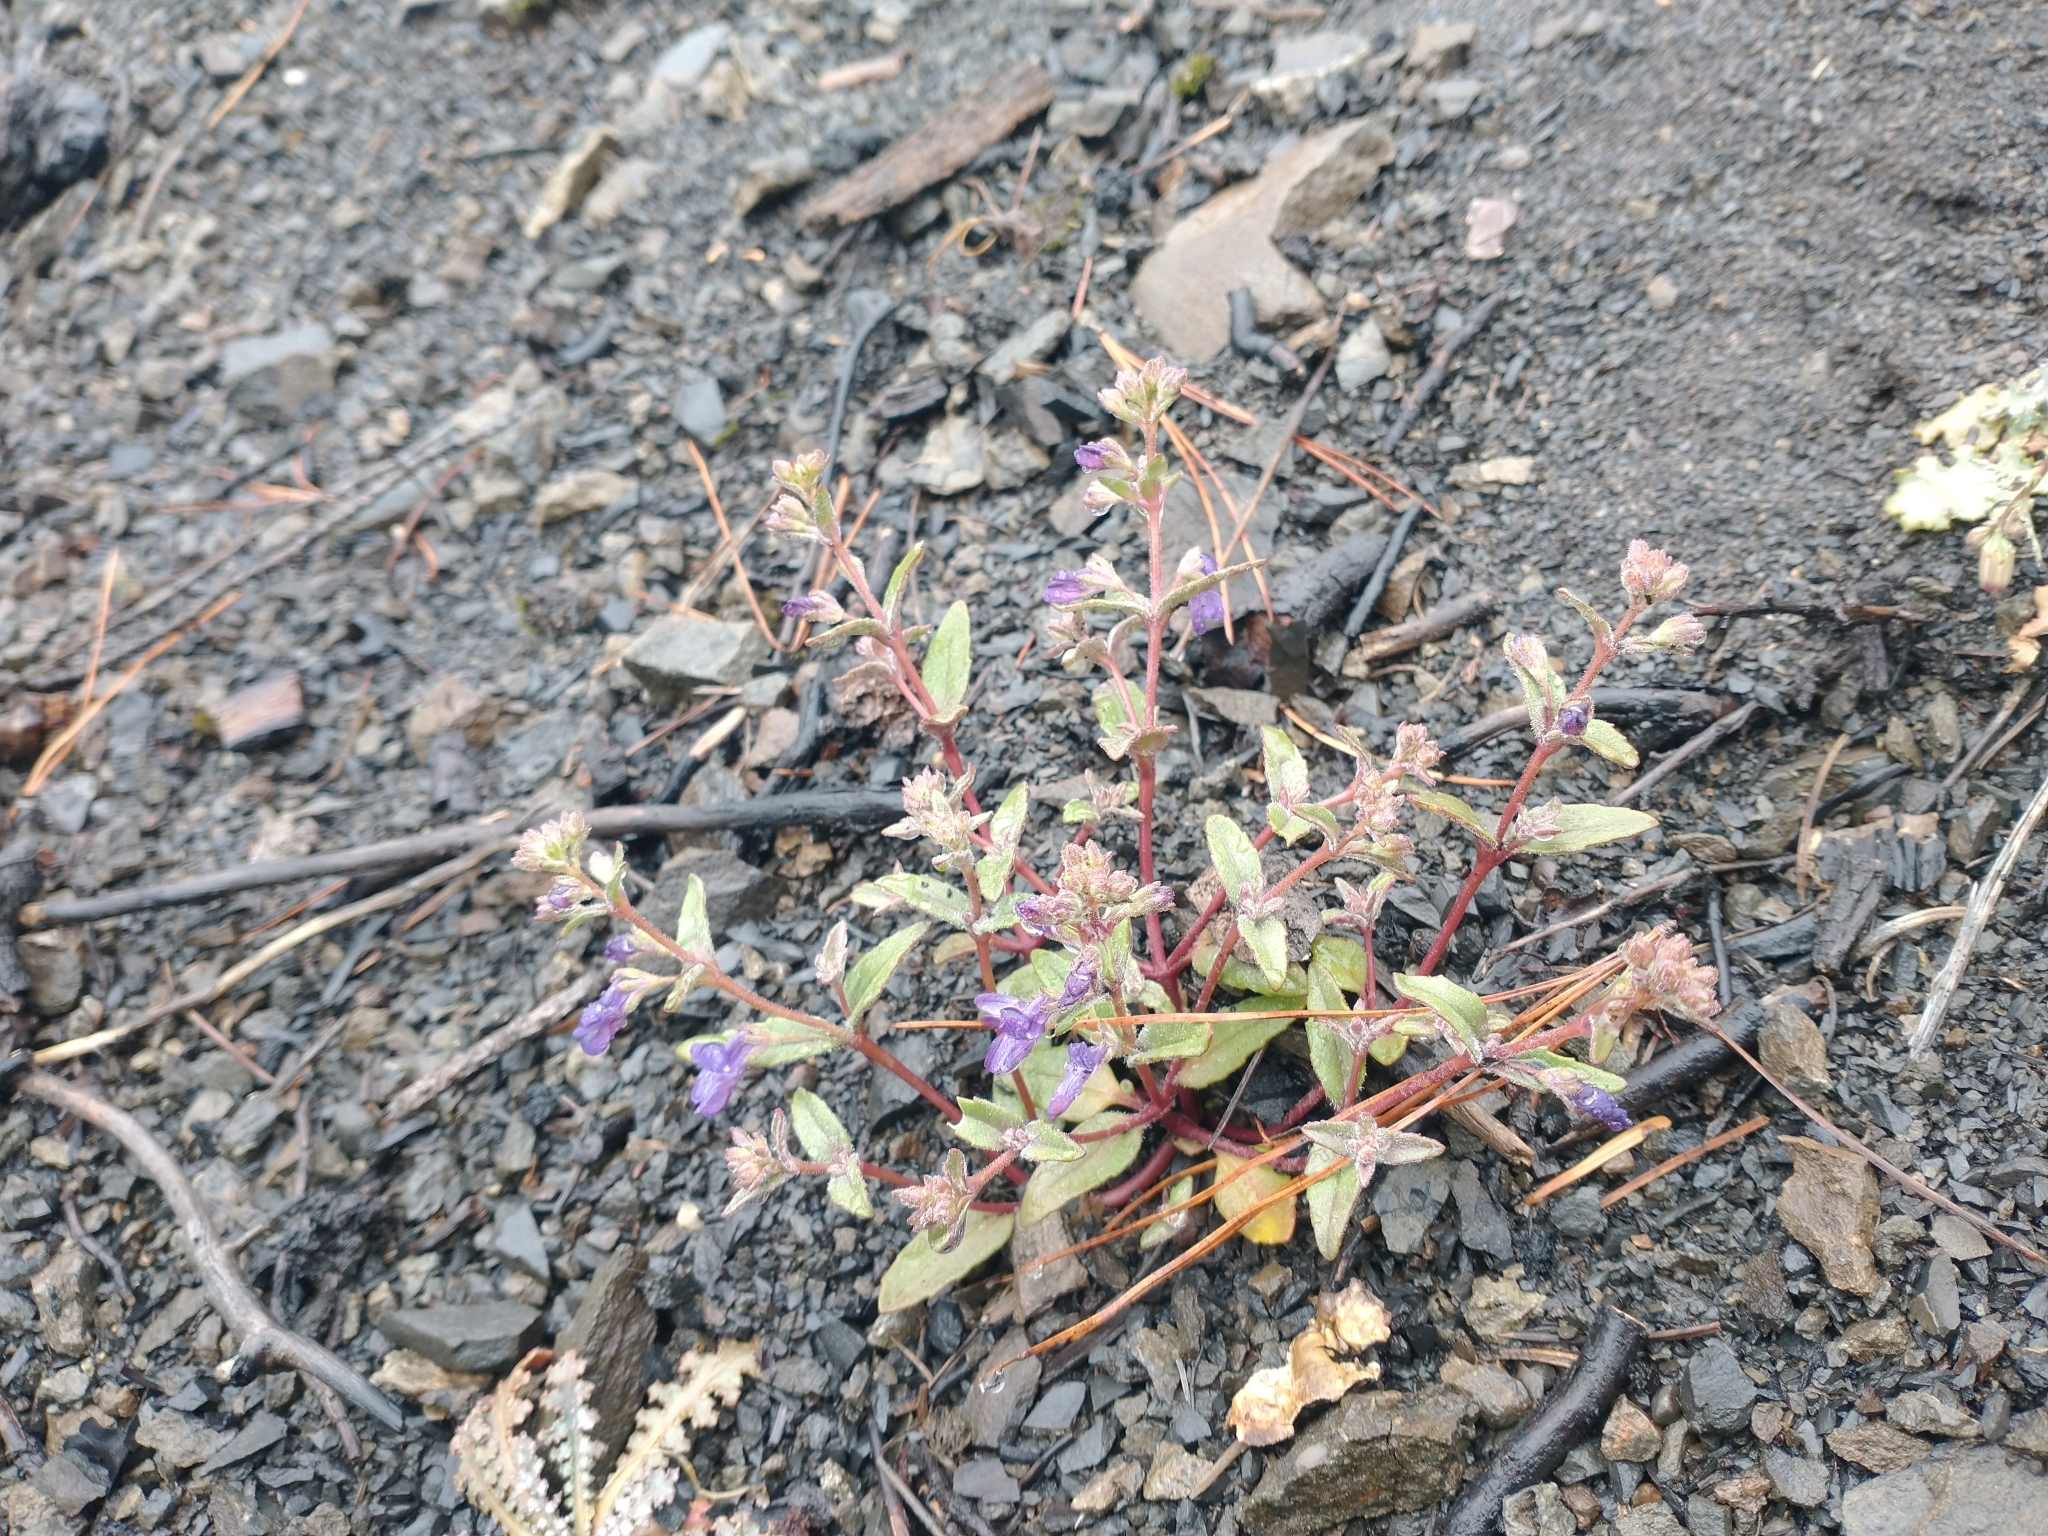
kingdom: Plantae
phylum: Tracheophyta
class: Magnoliopsida
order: Lamiales
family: Plantaginaceae
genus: Collinsia
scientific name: Collinsia greenei
